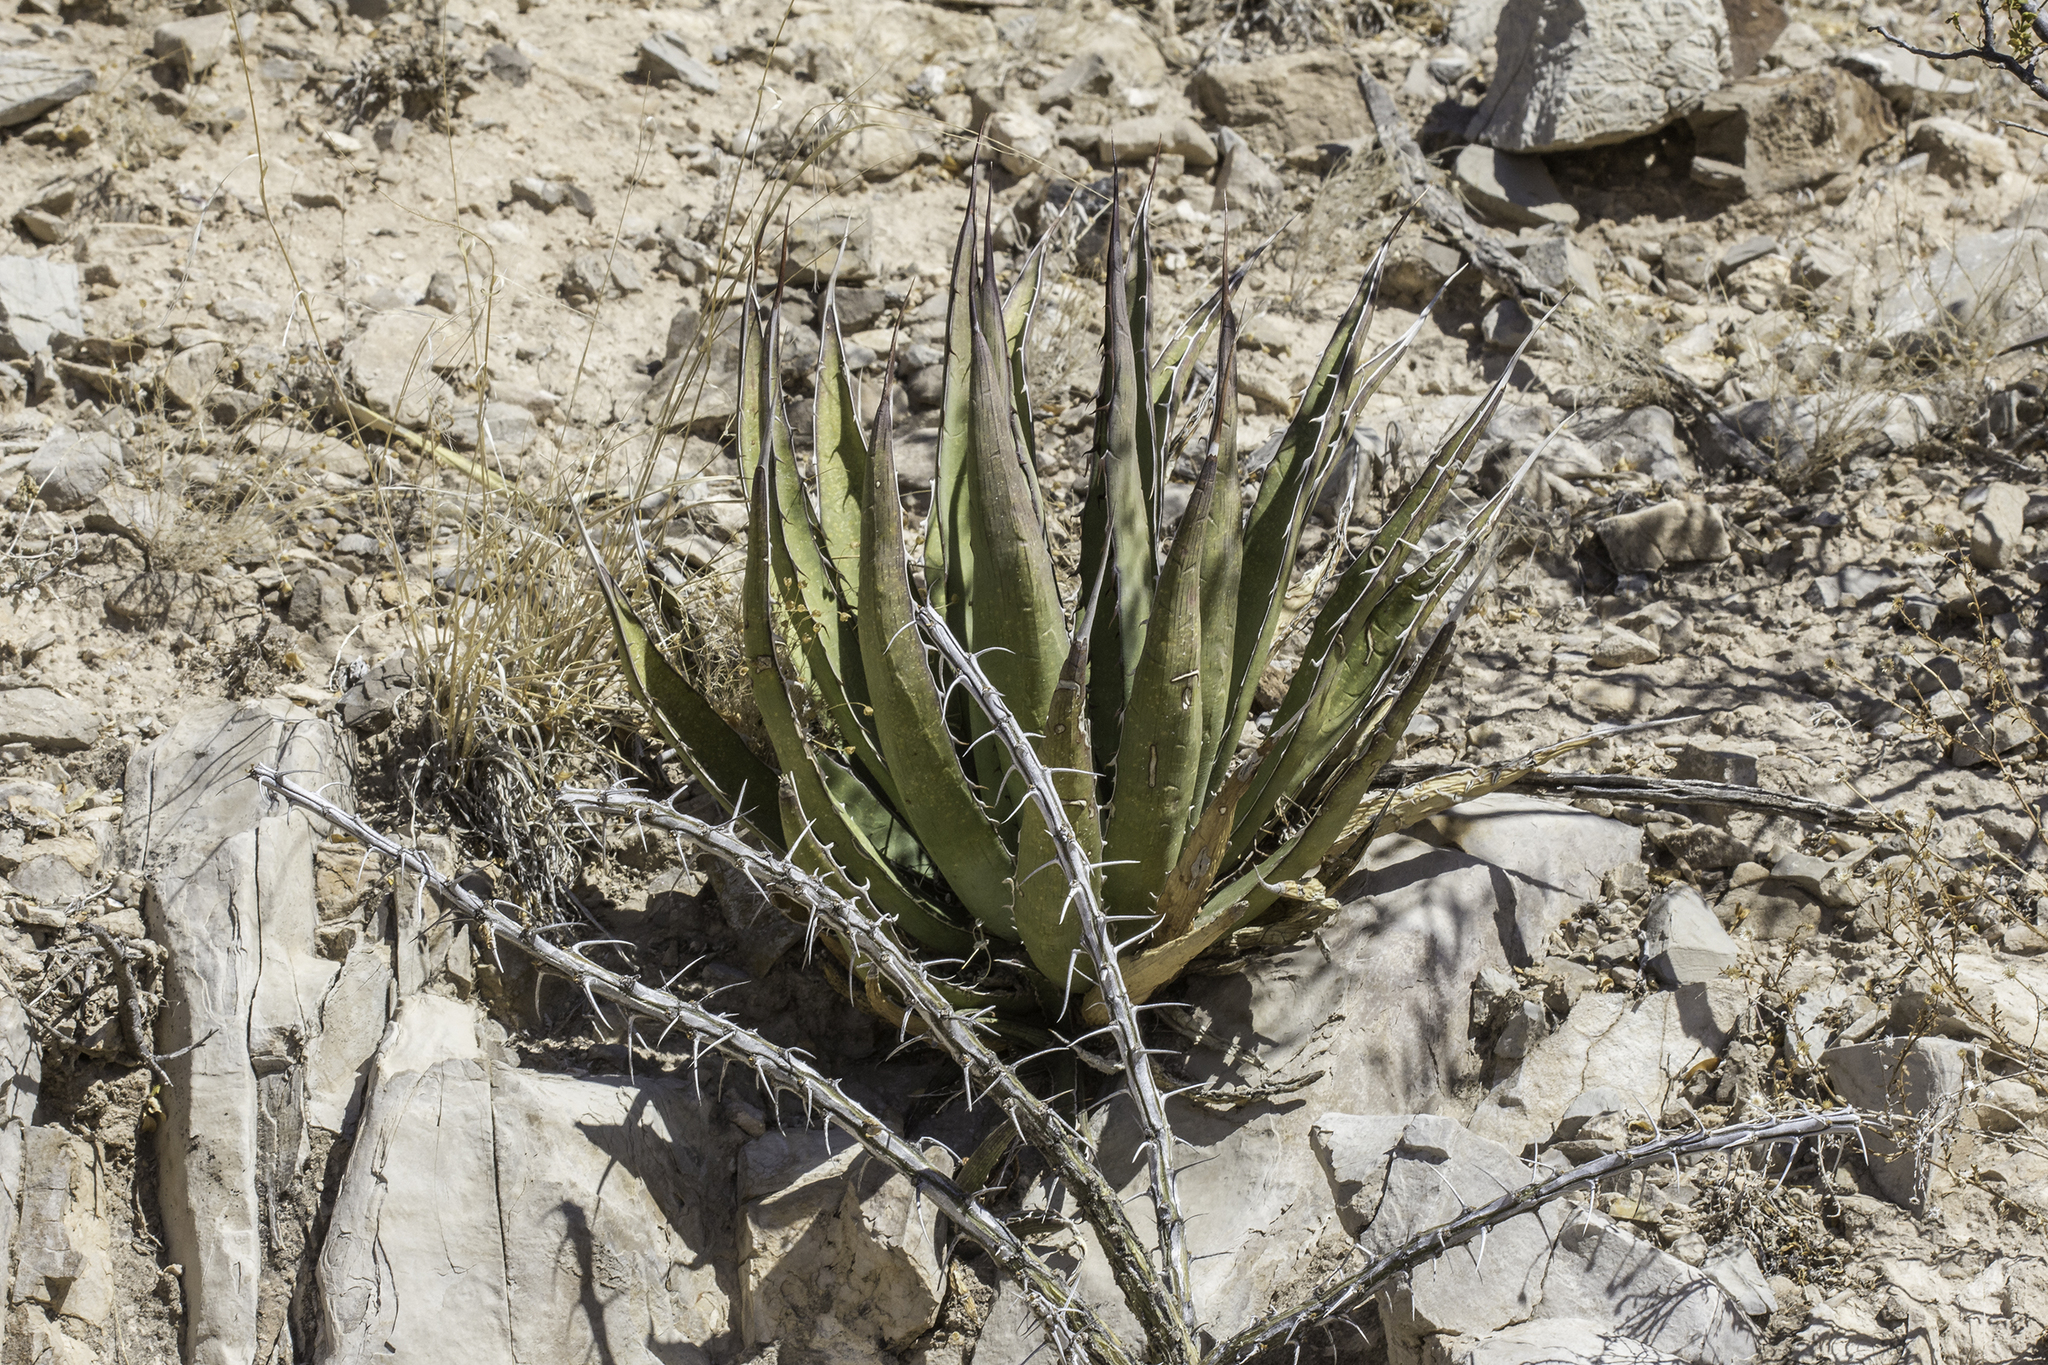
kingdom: Plantae
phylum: Tracheophyta
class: Liliopsida
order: Asparagales
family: Asparagaceae
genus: Agave
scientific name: Agave lechuguilla
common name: Lecheguilla agave
